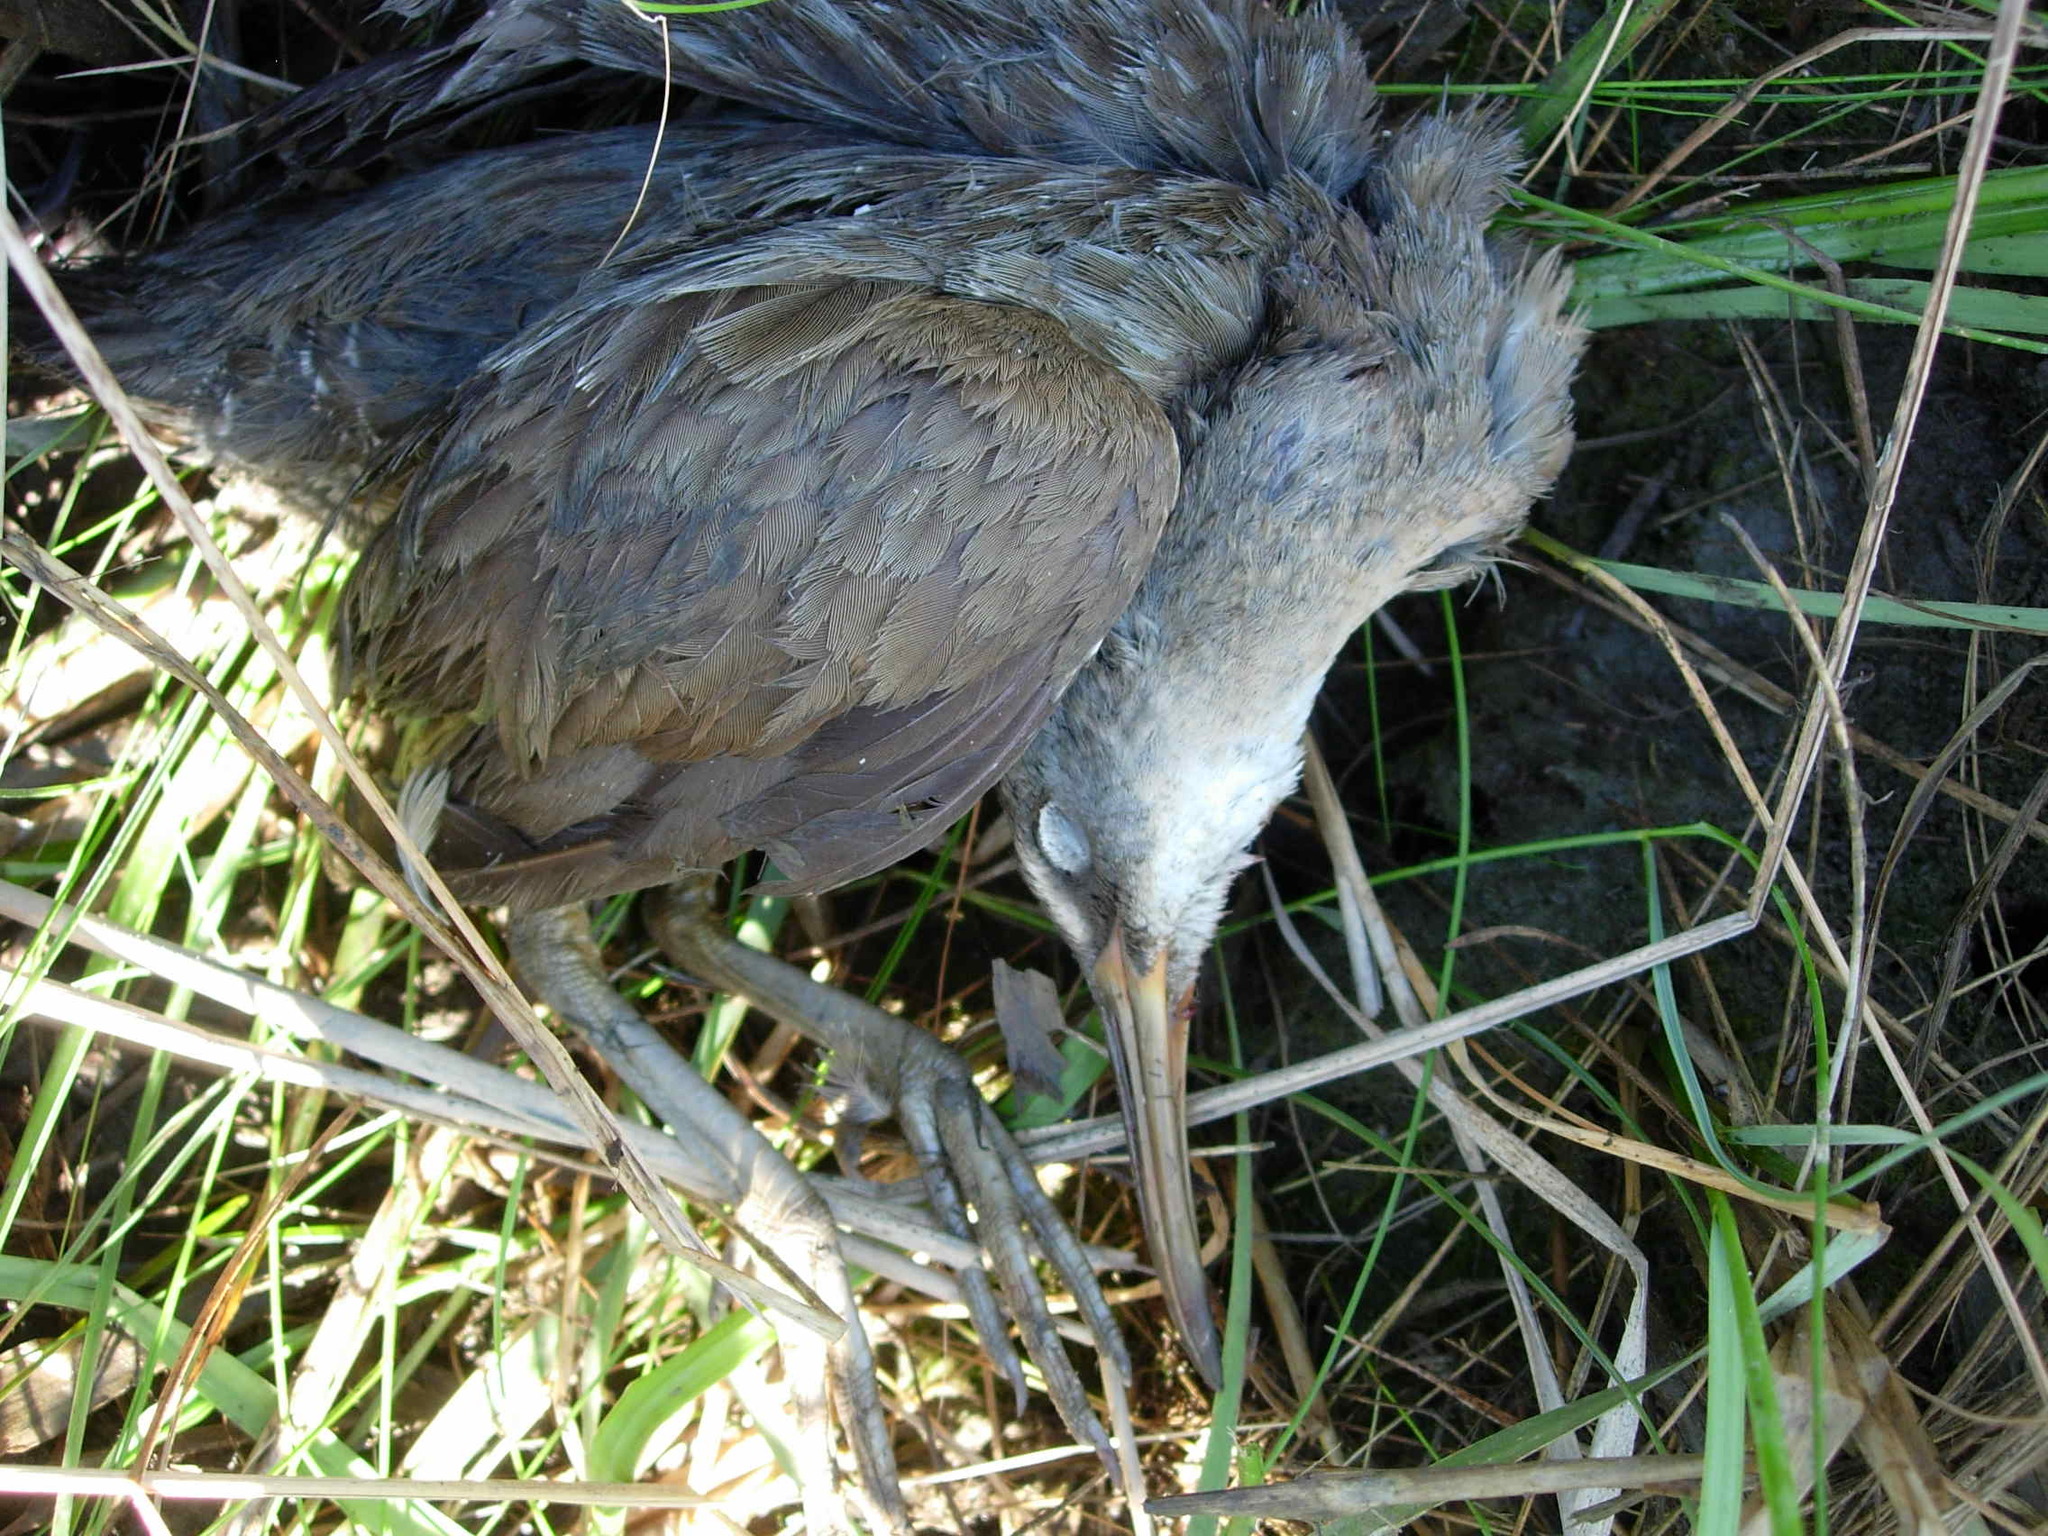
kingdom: Animalia
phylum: Chordata
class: Aves
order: Gruiformes
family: Rallidae
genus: Rallus
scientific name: Rallus crepitans
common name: Clapper rail
